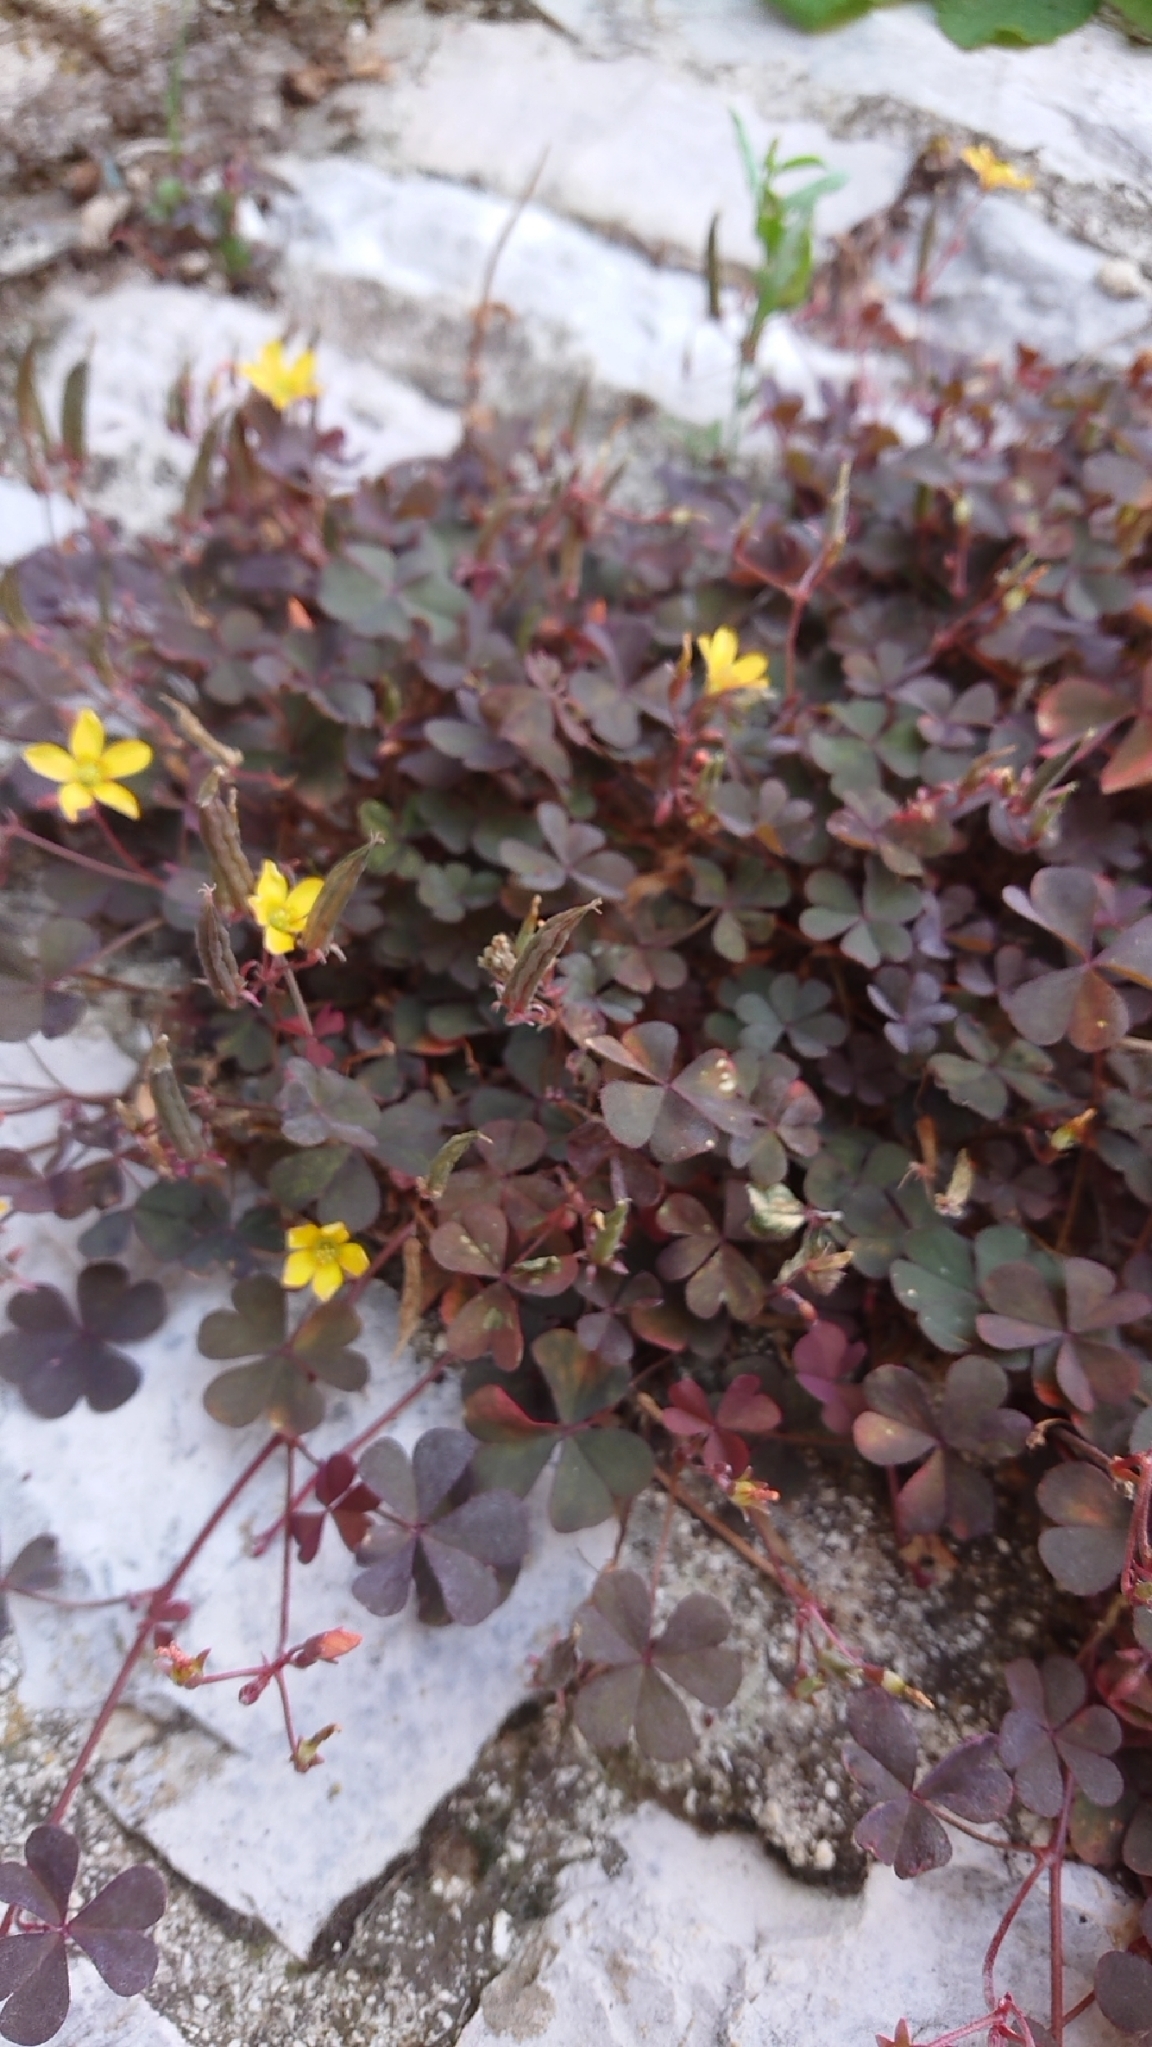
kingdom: Plantae
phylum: Tracheophyta
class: Magnoliopsida
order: Oxalidales
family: Oxalidaceae
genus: Oxalis
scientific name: Oxalis corniculata
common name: Procumbent yellow-sorrel
